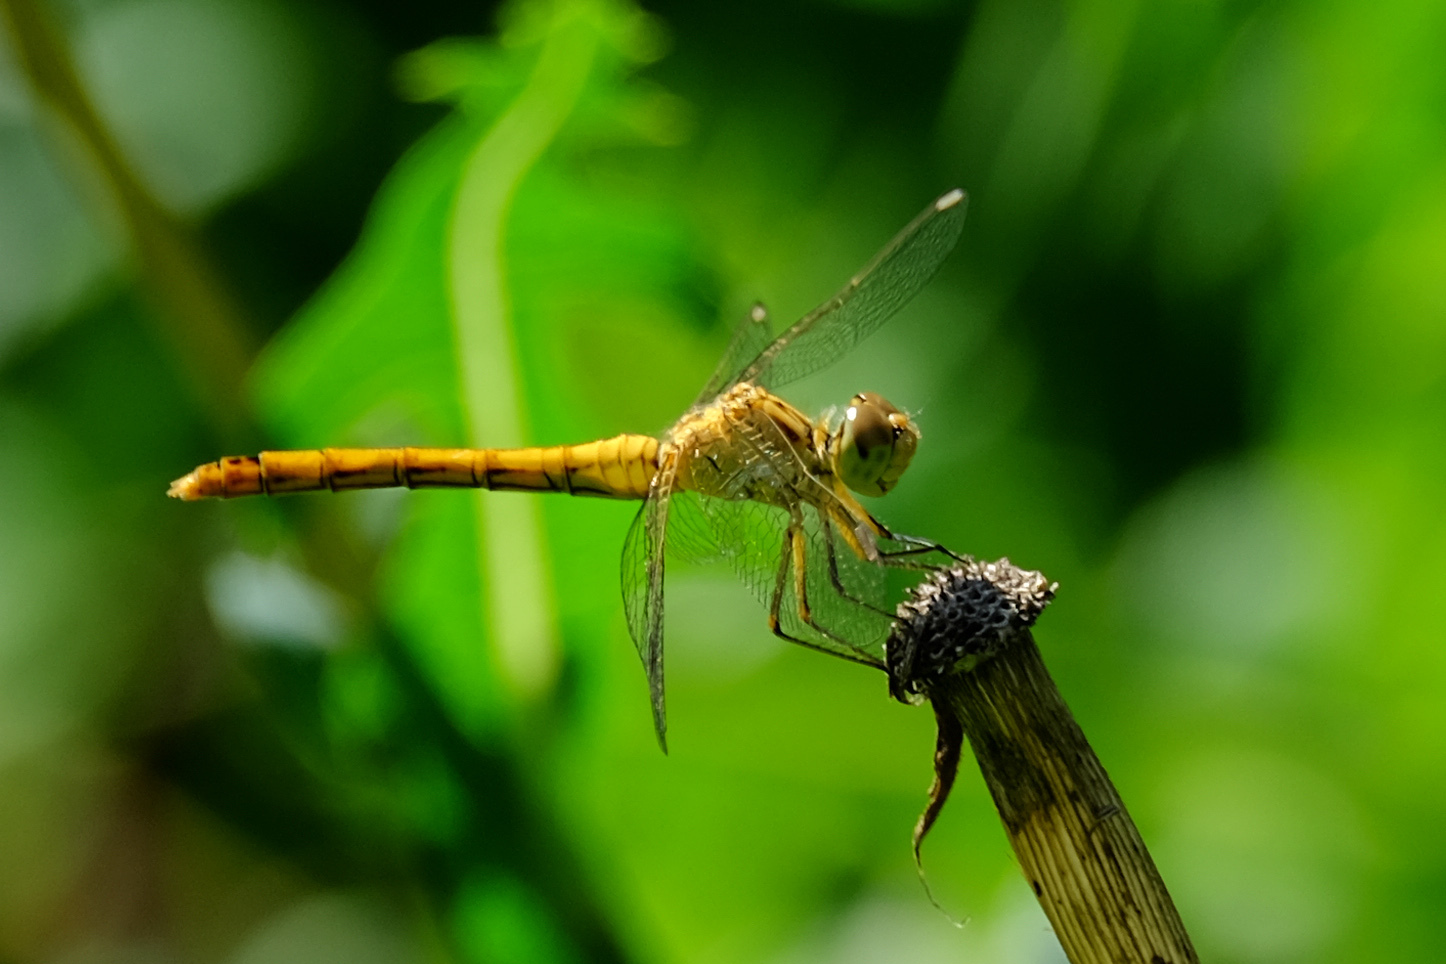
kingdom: Animalia
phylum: Arthropoda
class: Insecta
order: Odonata
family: Libellulidae
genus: Sympetrum
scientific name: Sympetrum meridionale
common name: Southern darter
